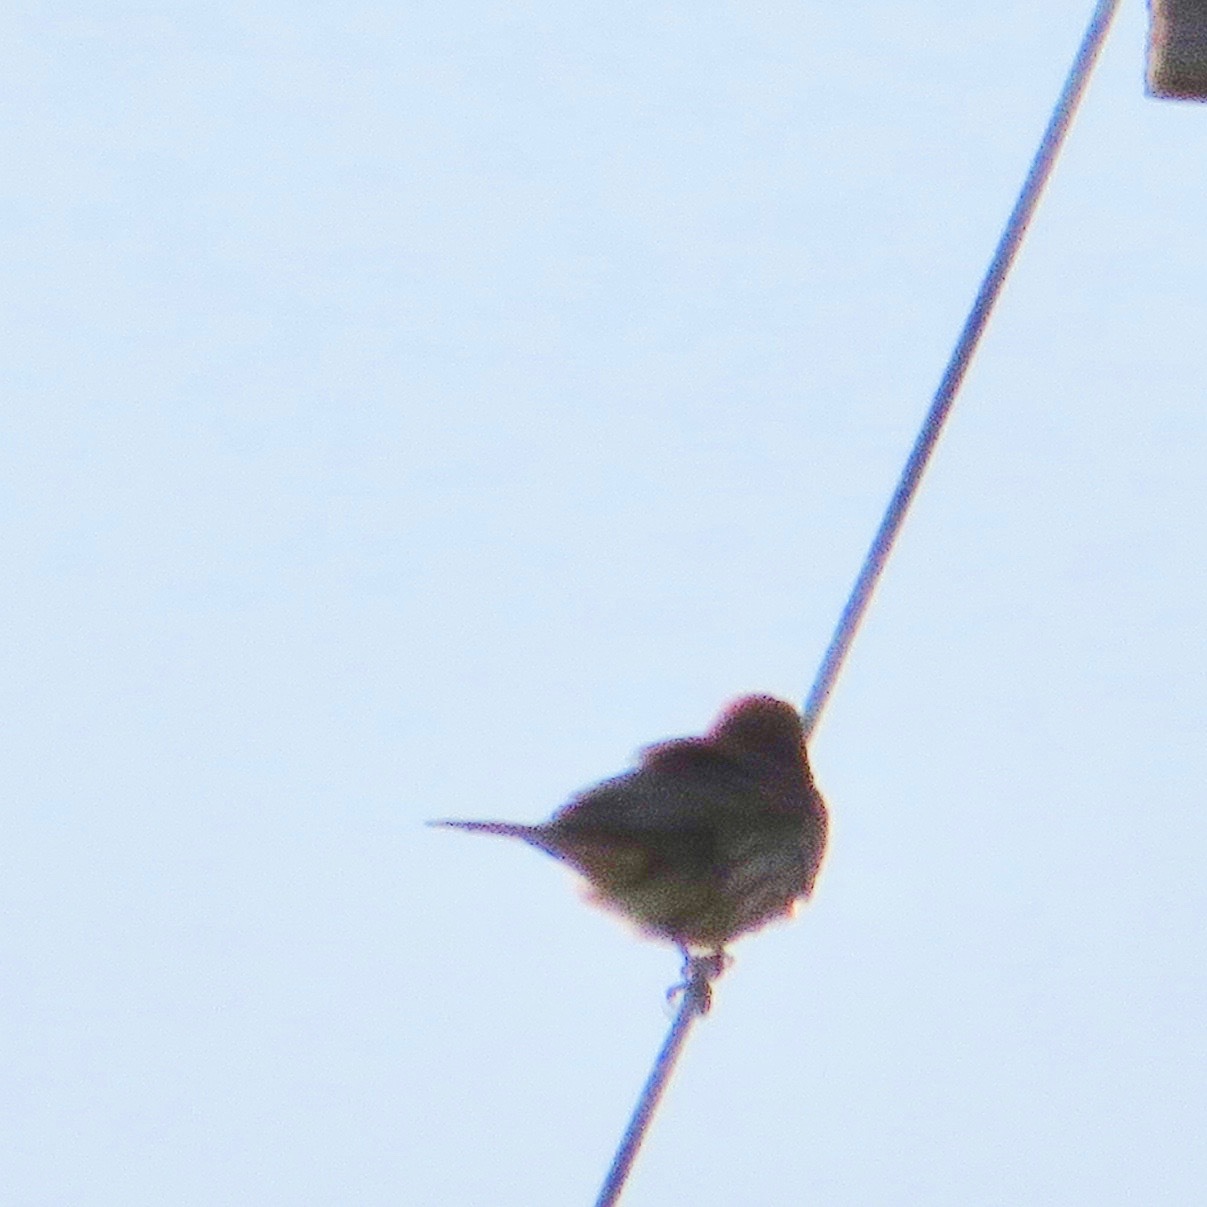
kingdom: Animalia
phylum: Chordata
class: Aves
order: Passeriformes
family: Fringillidae
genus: Haemorhous
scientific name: Haemorhous mexicanus
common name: House finch
